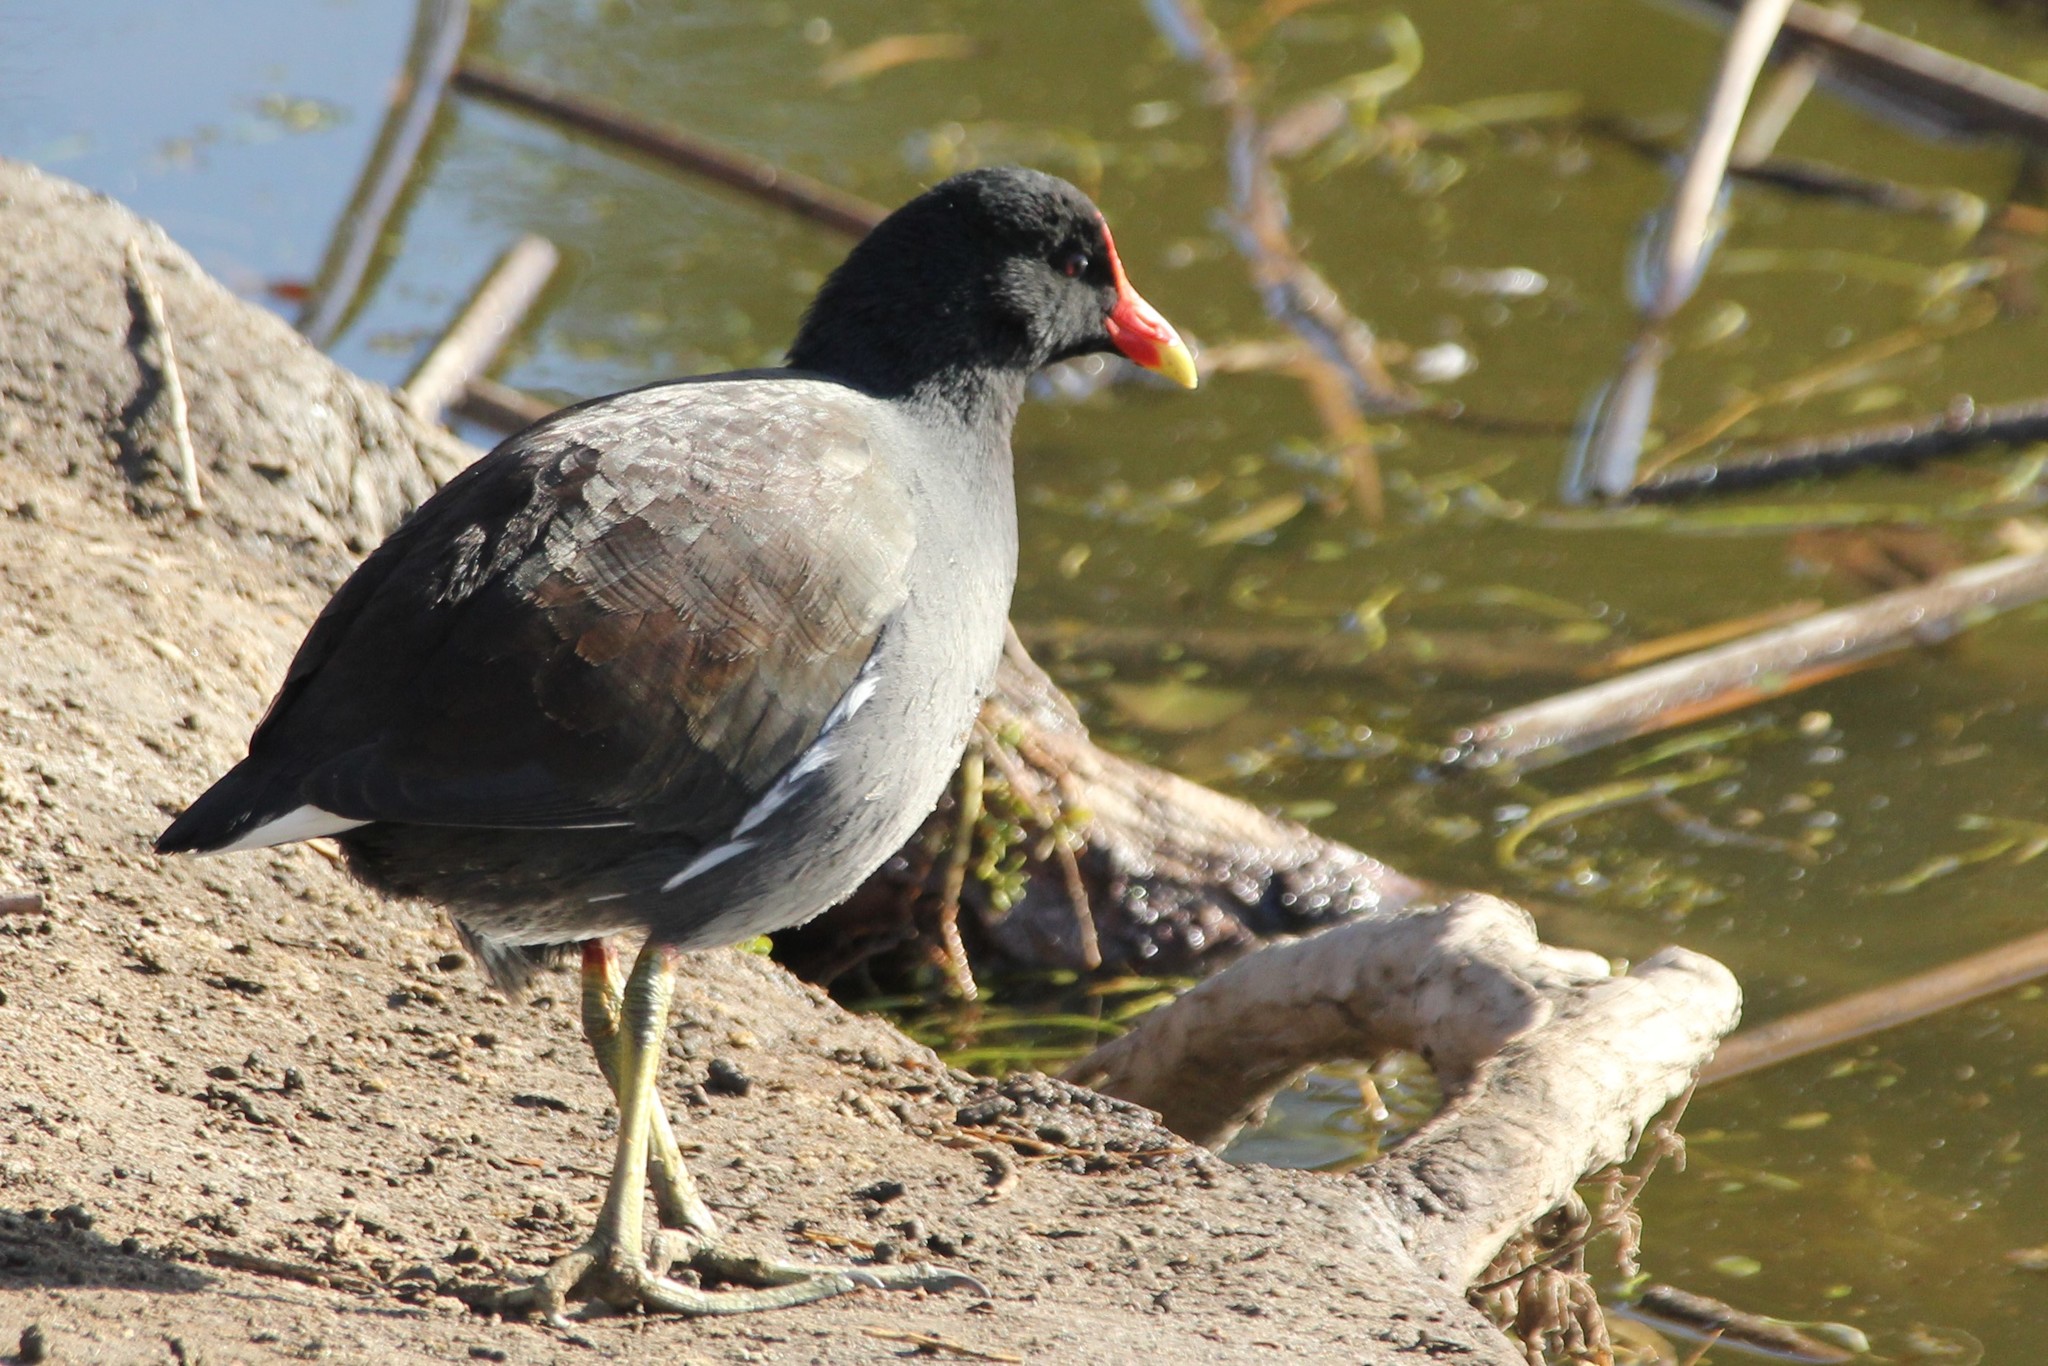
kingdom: Animalia
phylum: Chordata
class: Aves
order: Gruiformes
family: Rallidae
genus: Gallinula
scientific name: Gallinula chloropus
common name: Common moorhen
